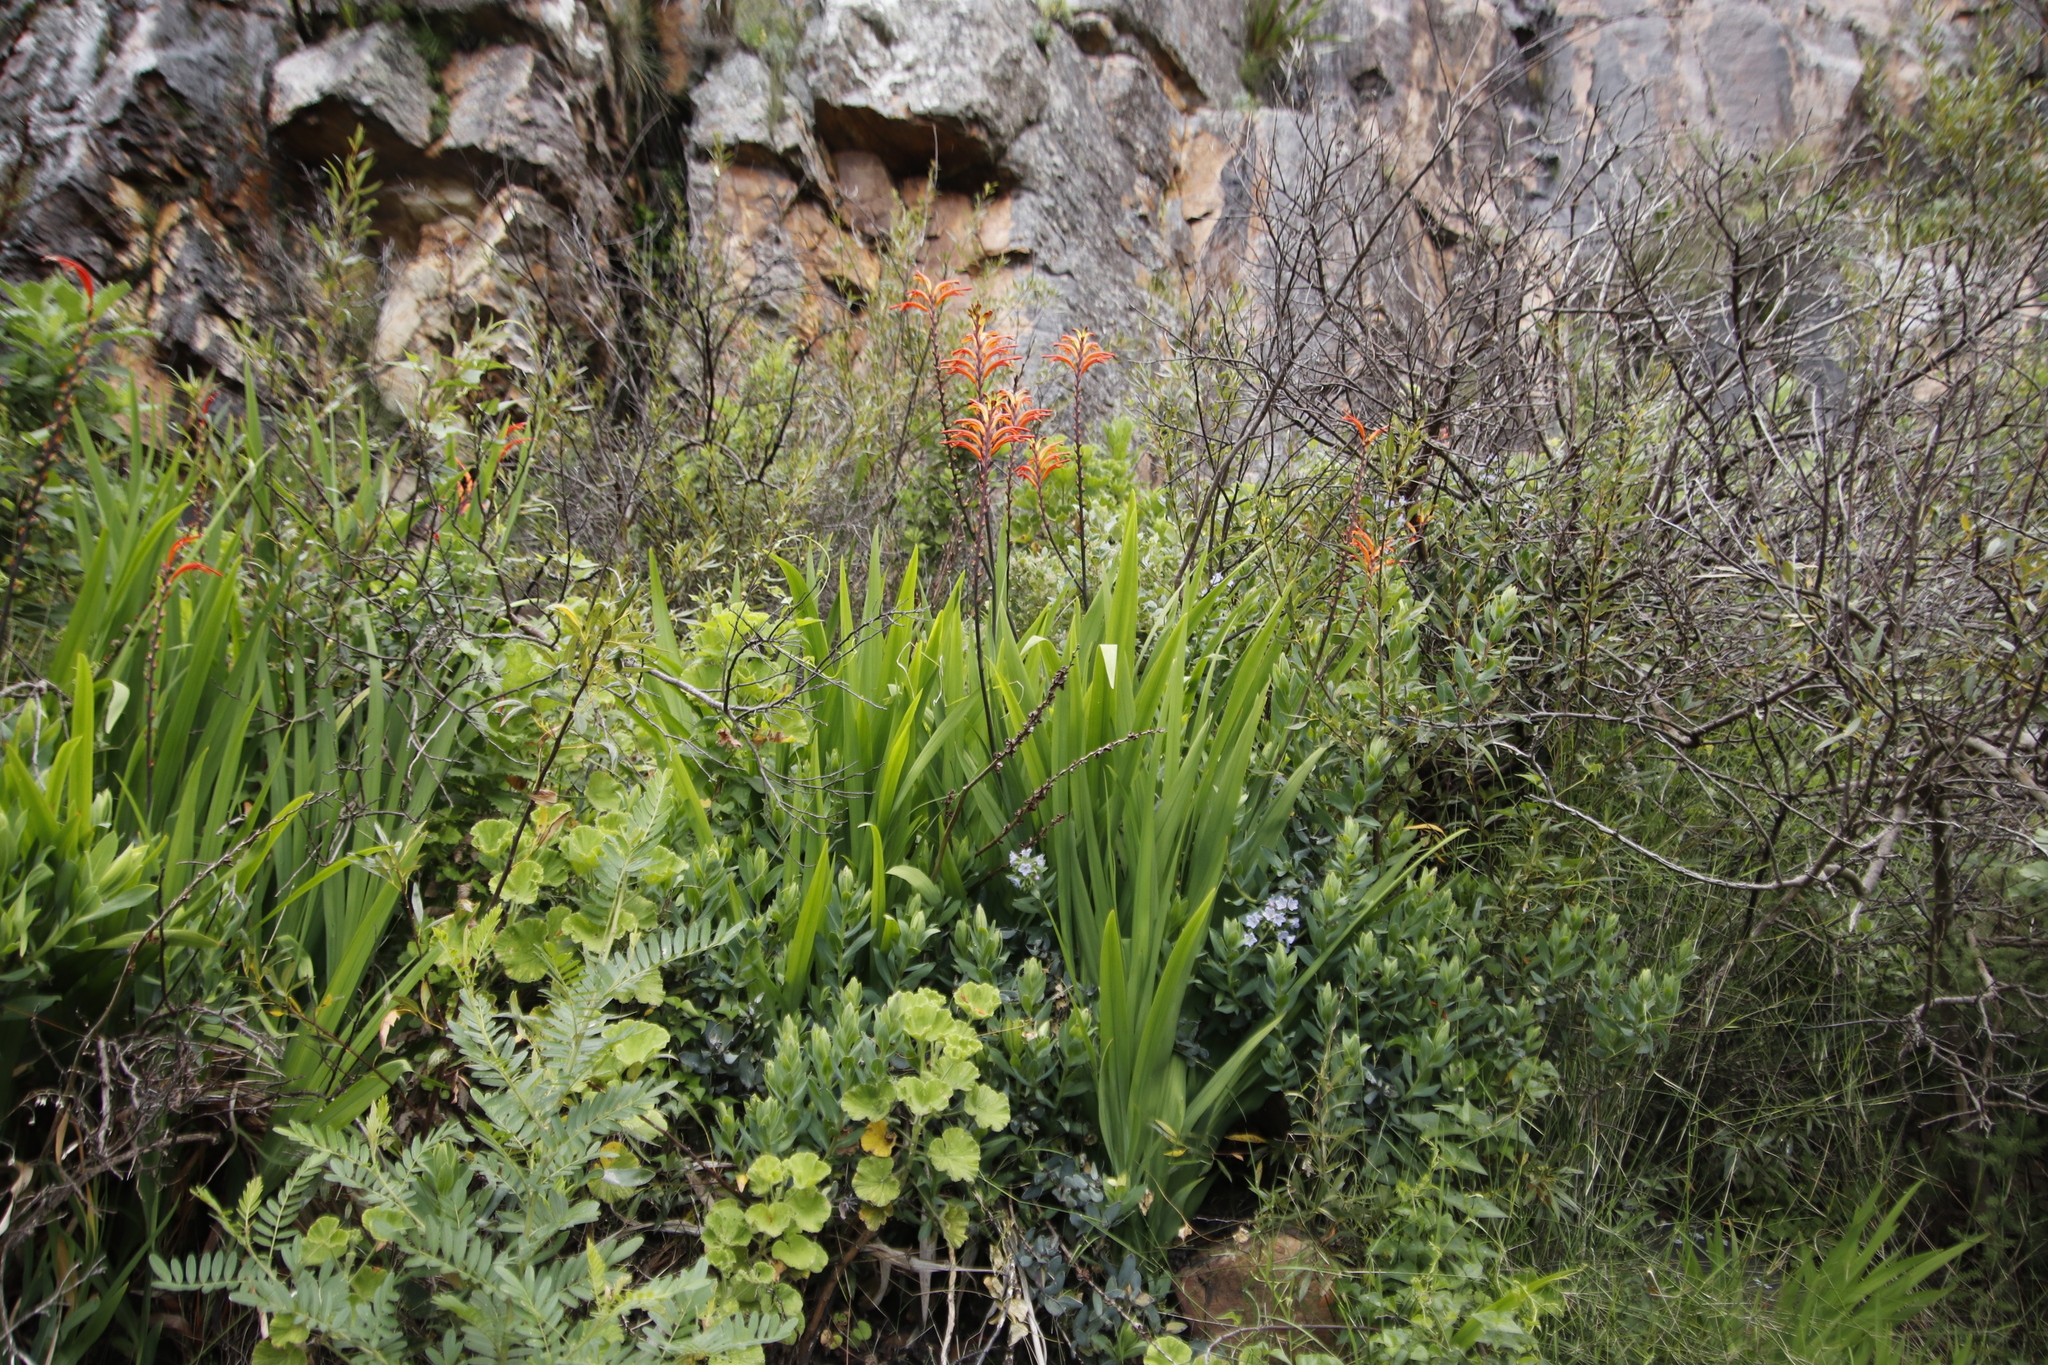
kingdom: Plantae
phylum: Tracheophyta
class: Liliopsida
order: Asparagales
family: Iridaceae
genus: Chasmanthe
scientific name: Chasmanthe floribunda
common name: African cornflag
